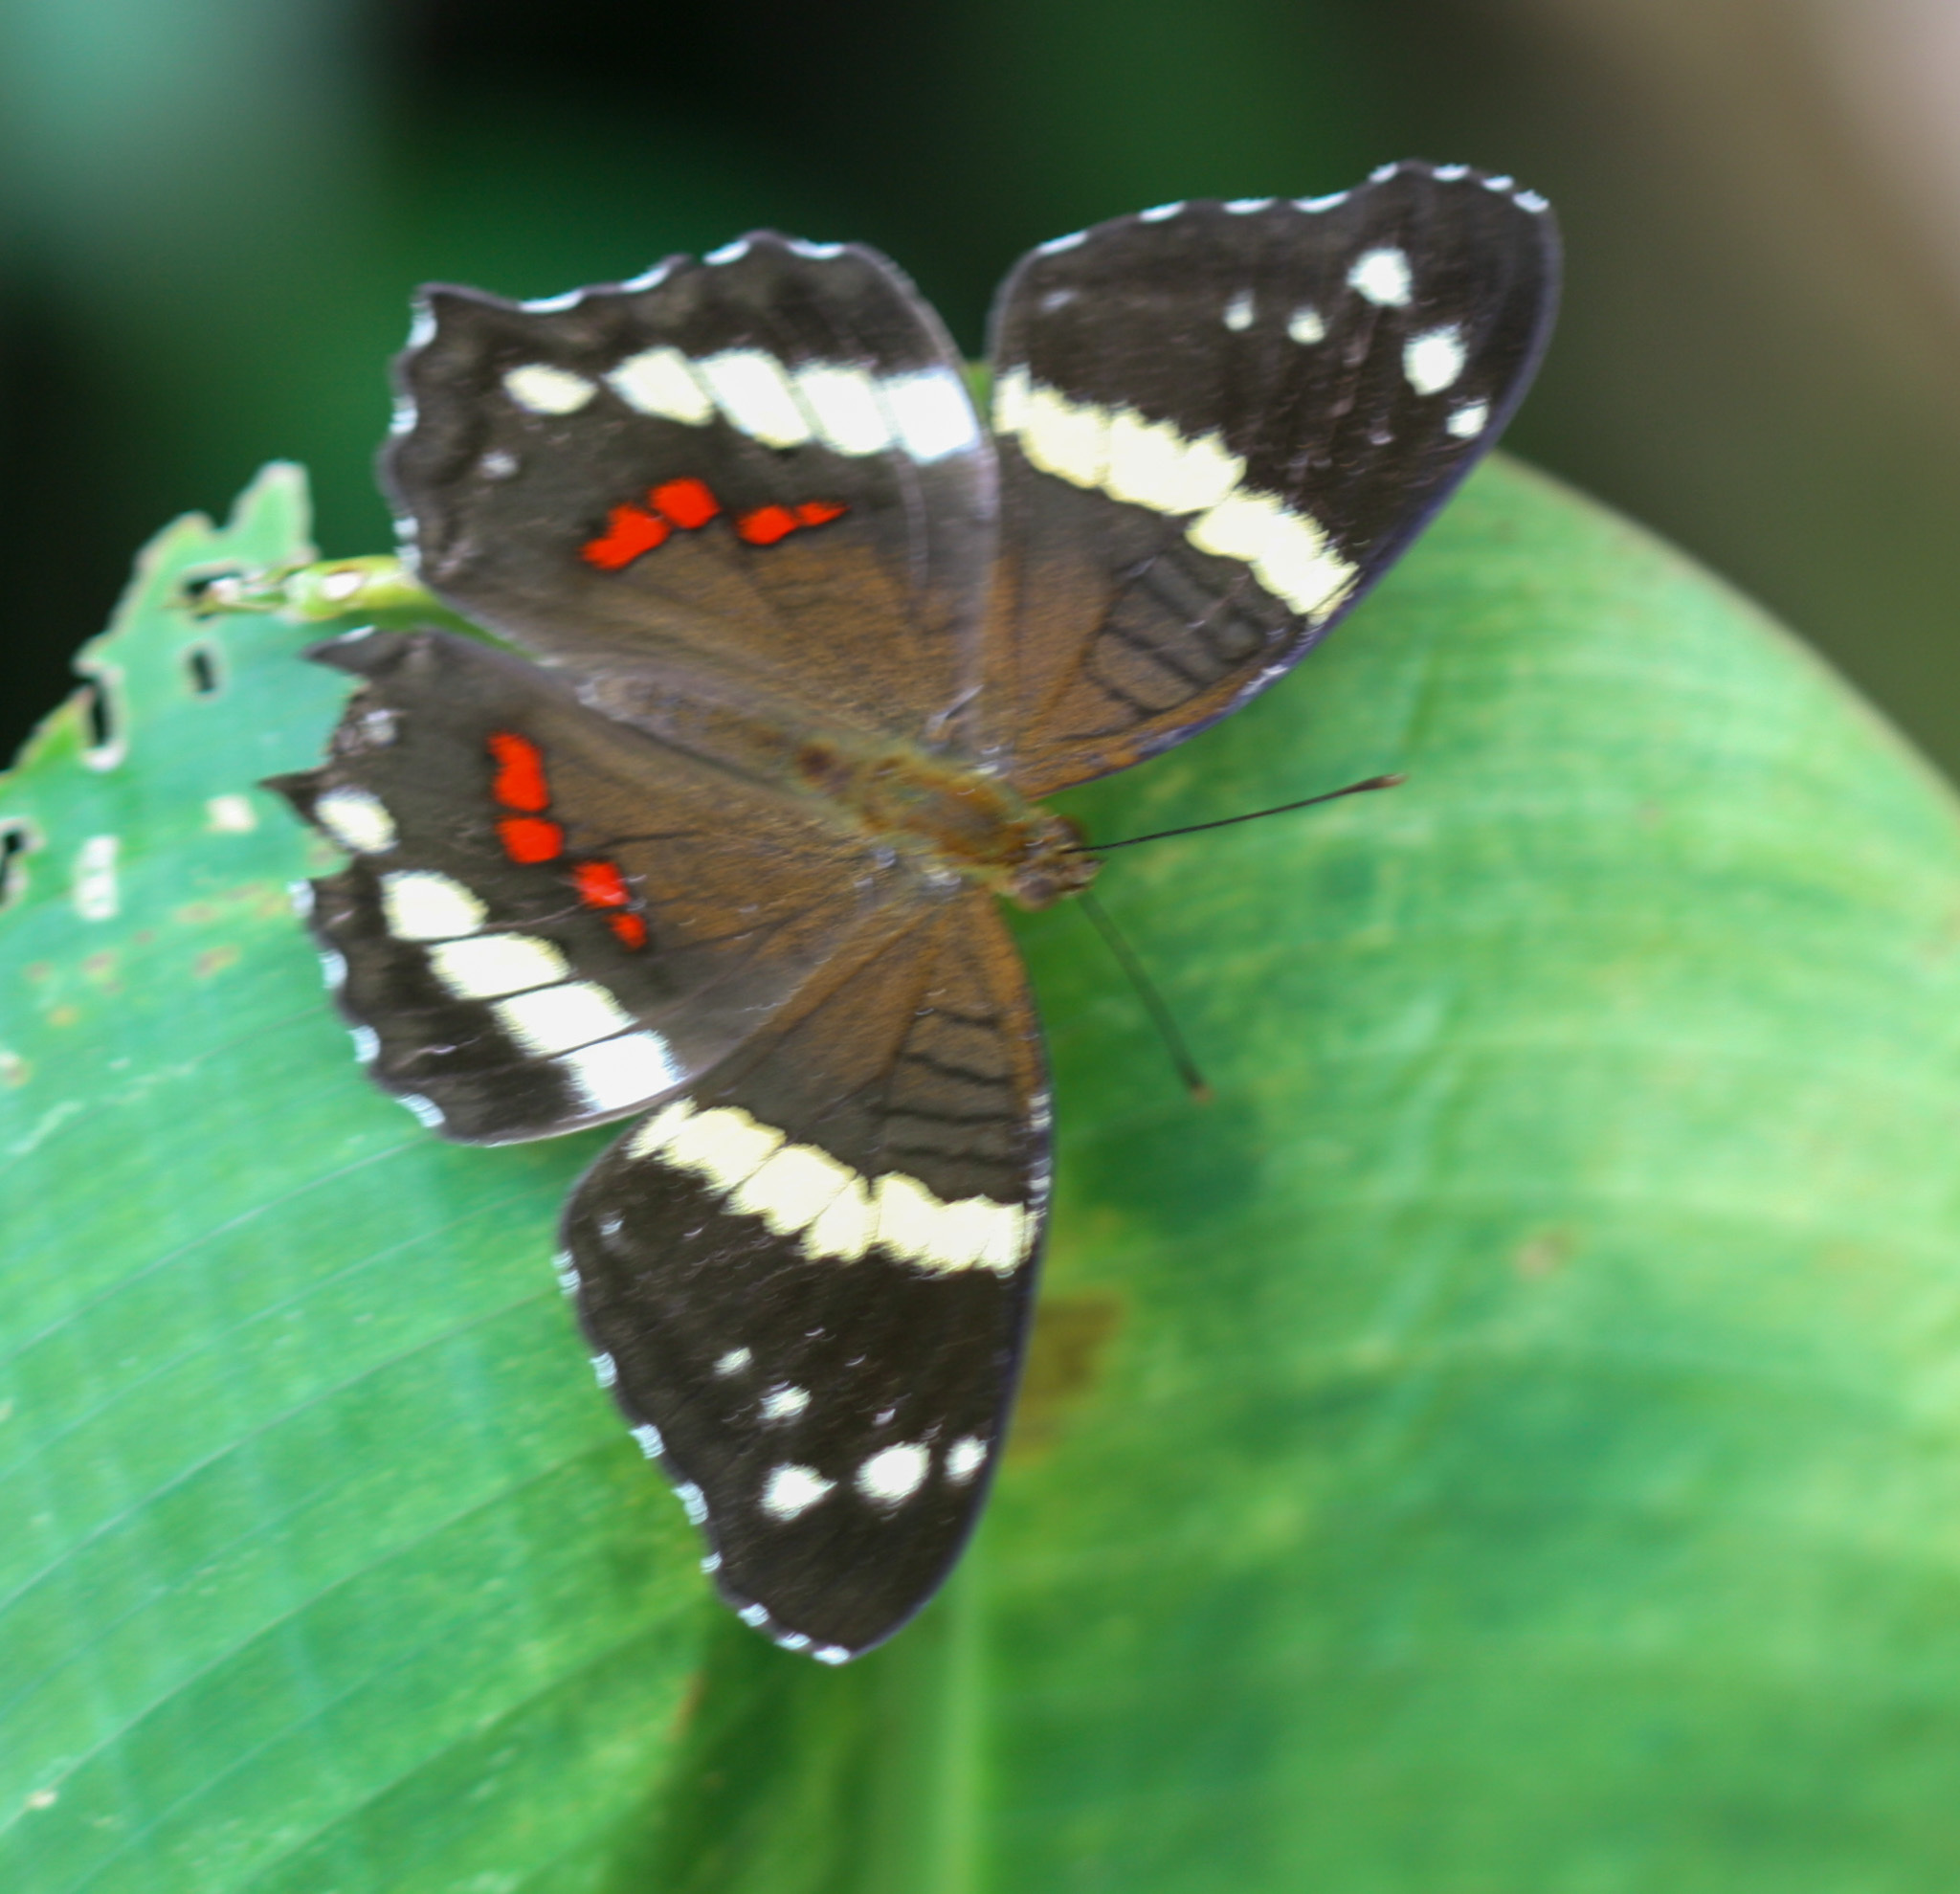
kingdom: Animalia
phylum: Arthropoda
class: Insecta
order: Lepidoptera
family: Nymphalidae
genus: Anartia
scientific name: Anartia fatima
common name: Banded peacock
